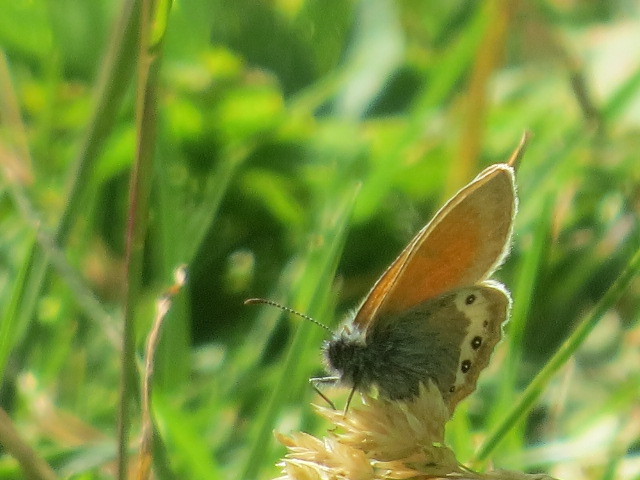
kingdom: Animalia
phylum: Arthropoda
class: Insecta
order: Lepidoptera
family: Nymphalidae
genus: Coenonympha
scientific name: Coenonympha
